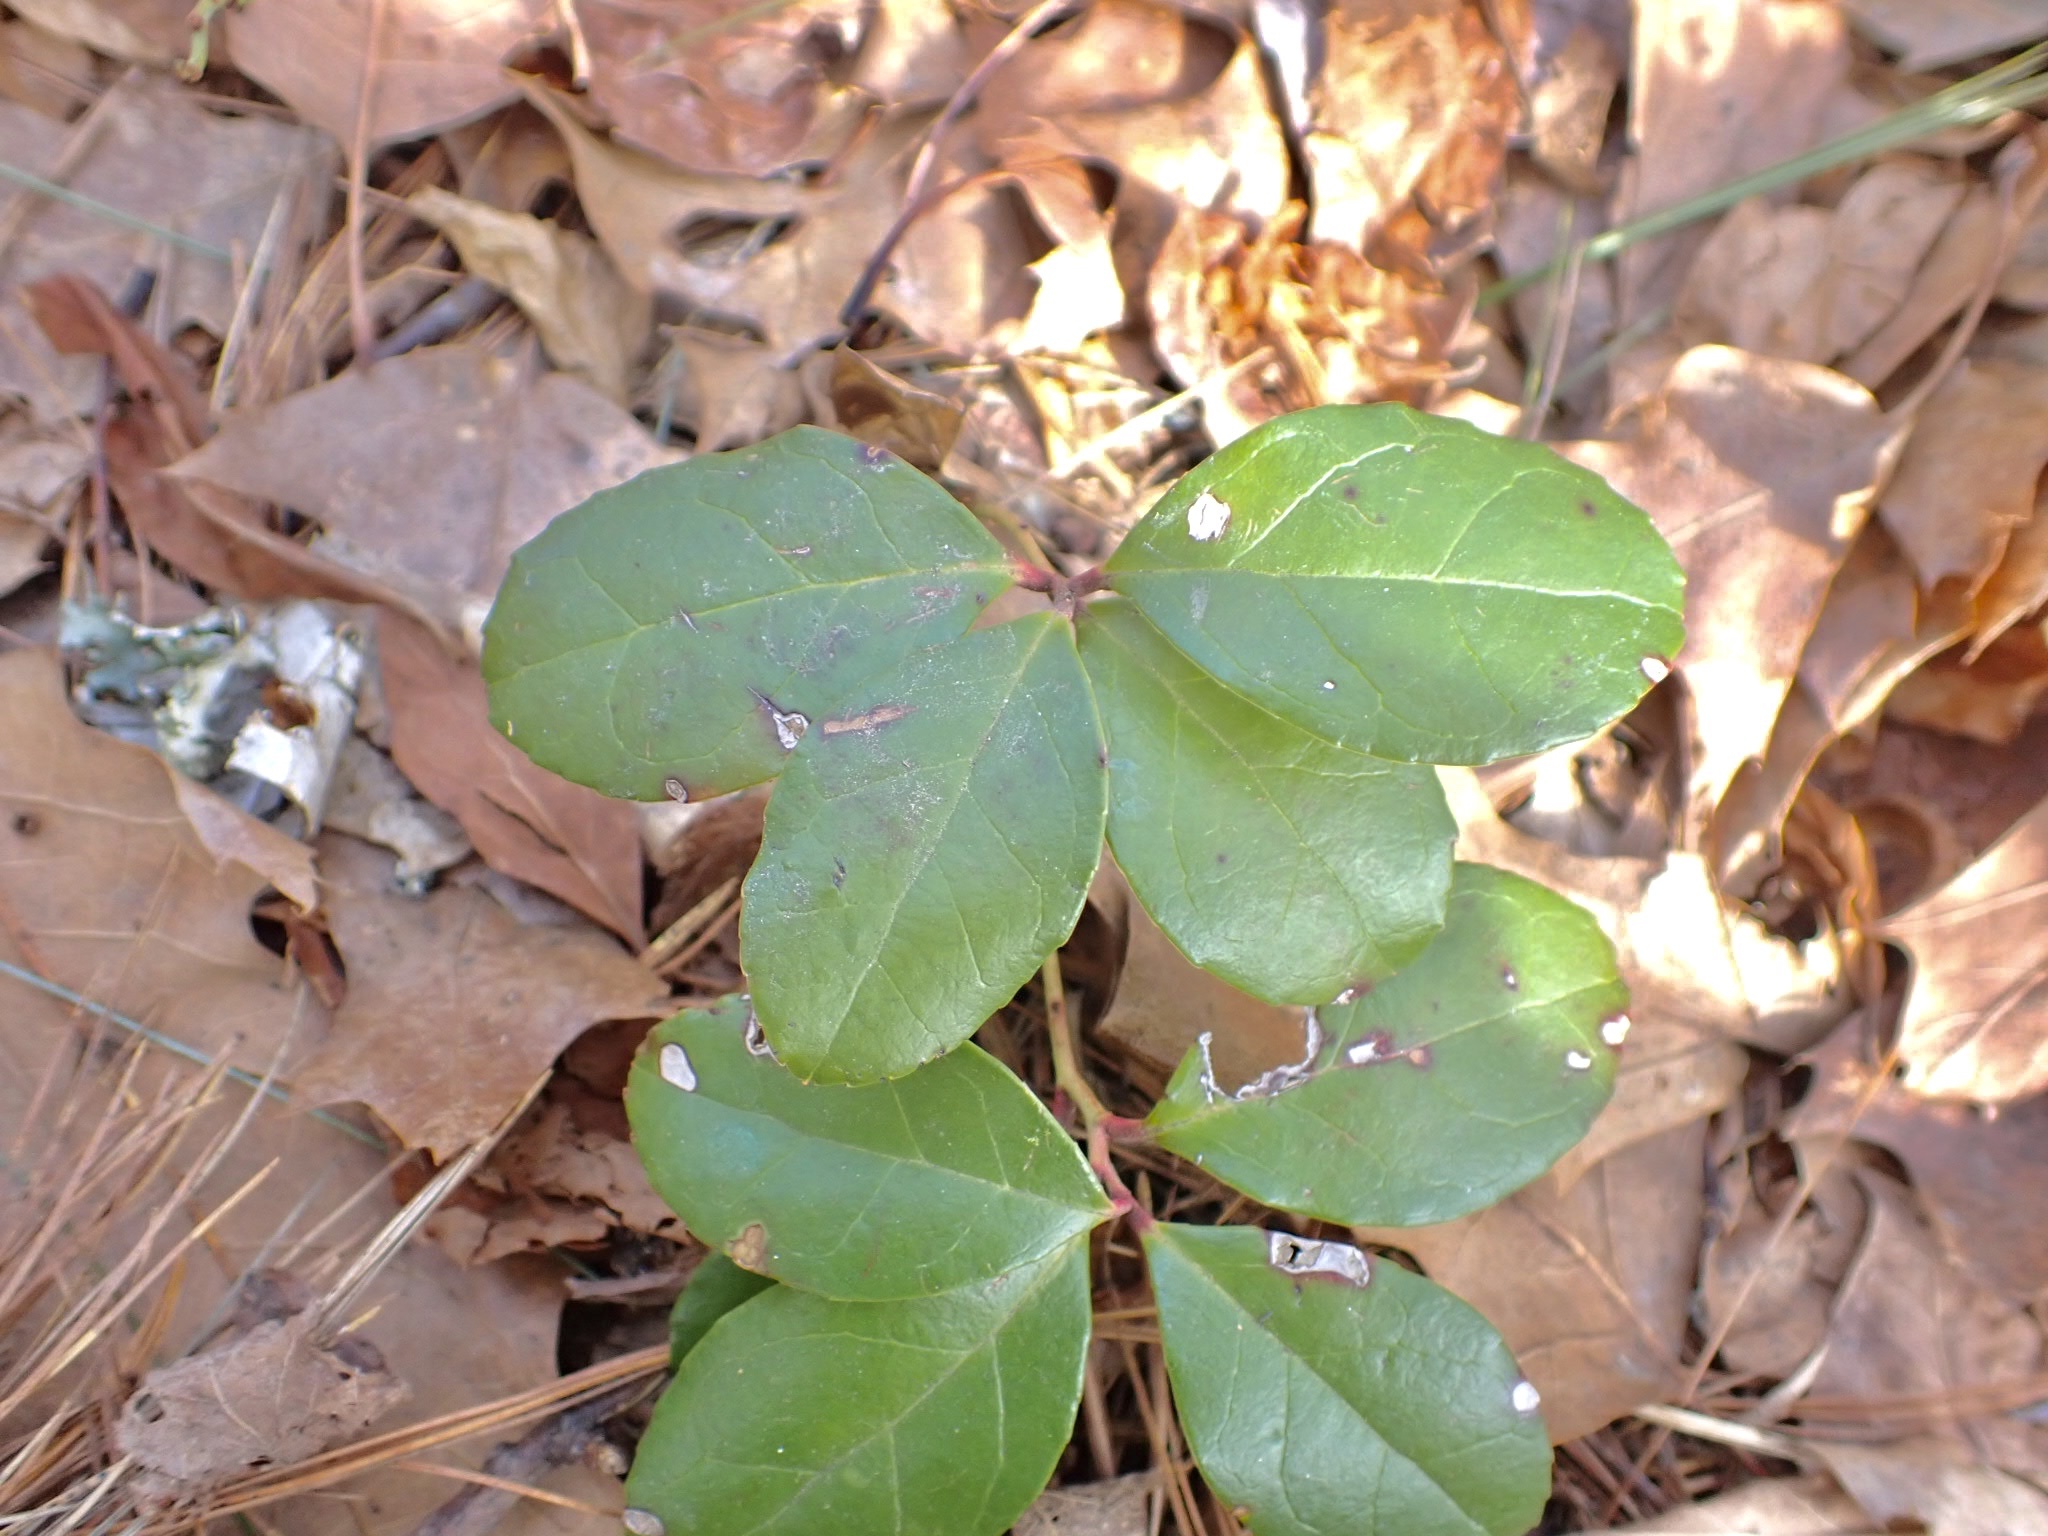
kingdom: Plantae
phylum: Tracheophyta
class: Magnoliopsida
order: Ericales
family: Ericaceae
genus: Gaultheria
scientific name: Gaultheria procumbens
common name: Checkerberry
